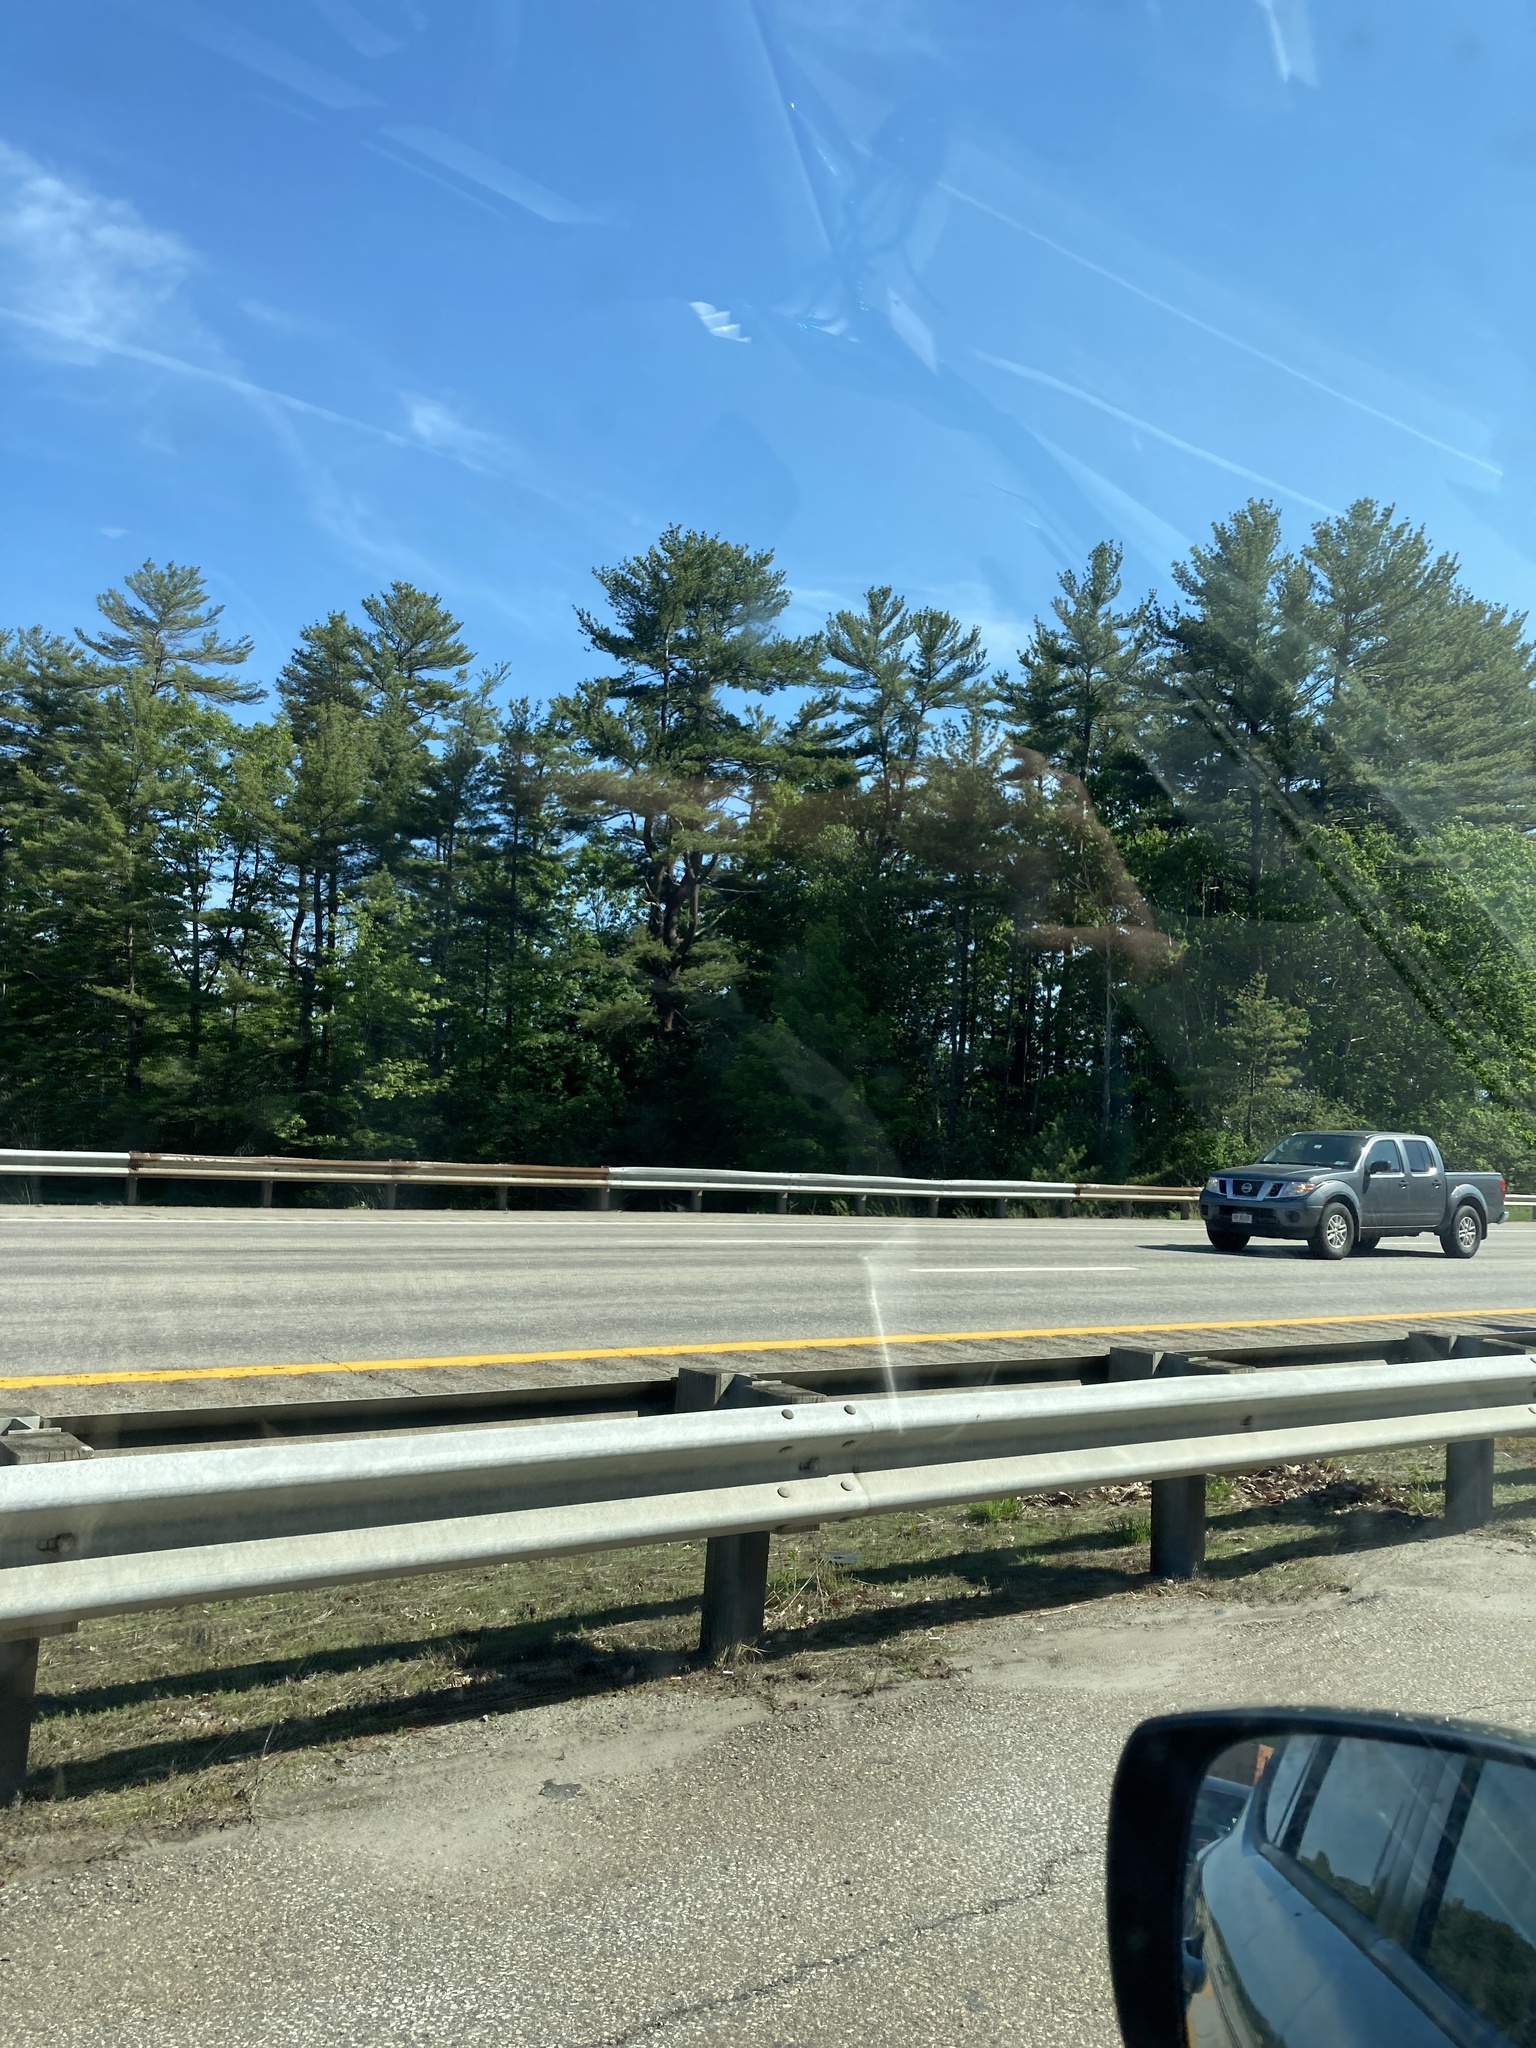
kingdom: Plantae
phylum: Tracheophyta
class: Pinopsida
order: Pinales
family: Pinaceae
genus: Pinus
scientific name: Pinus strobus
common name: Weymouth pine
